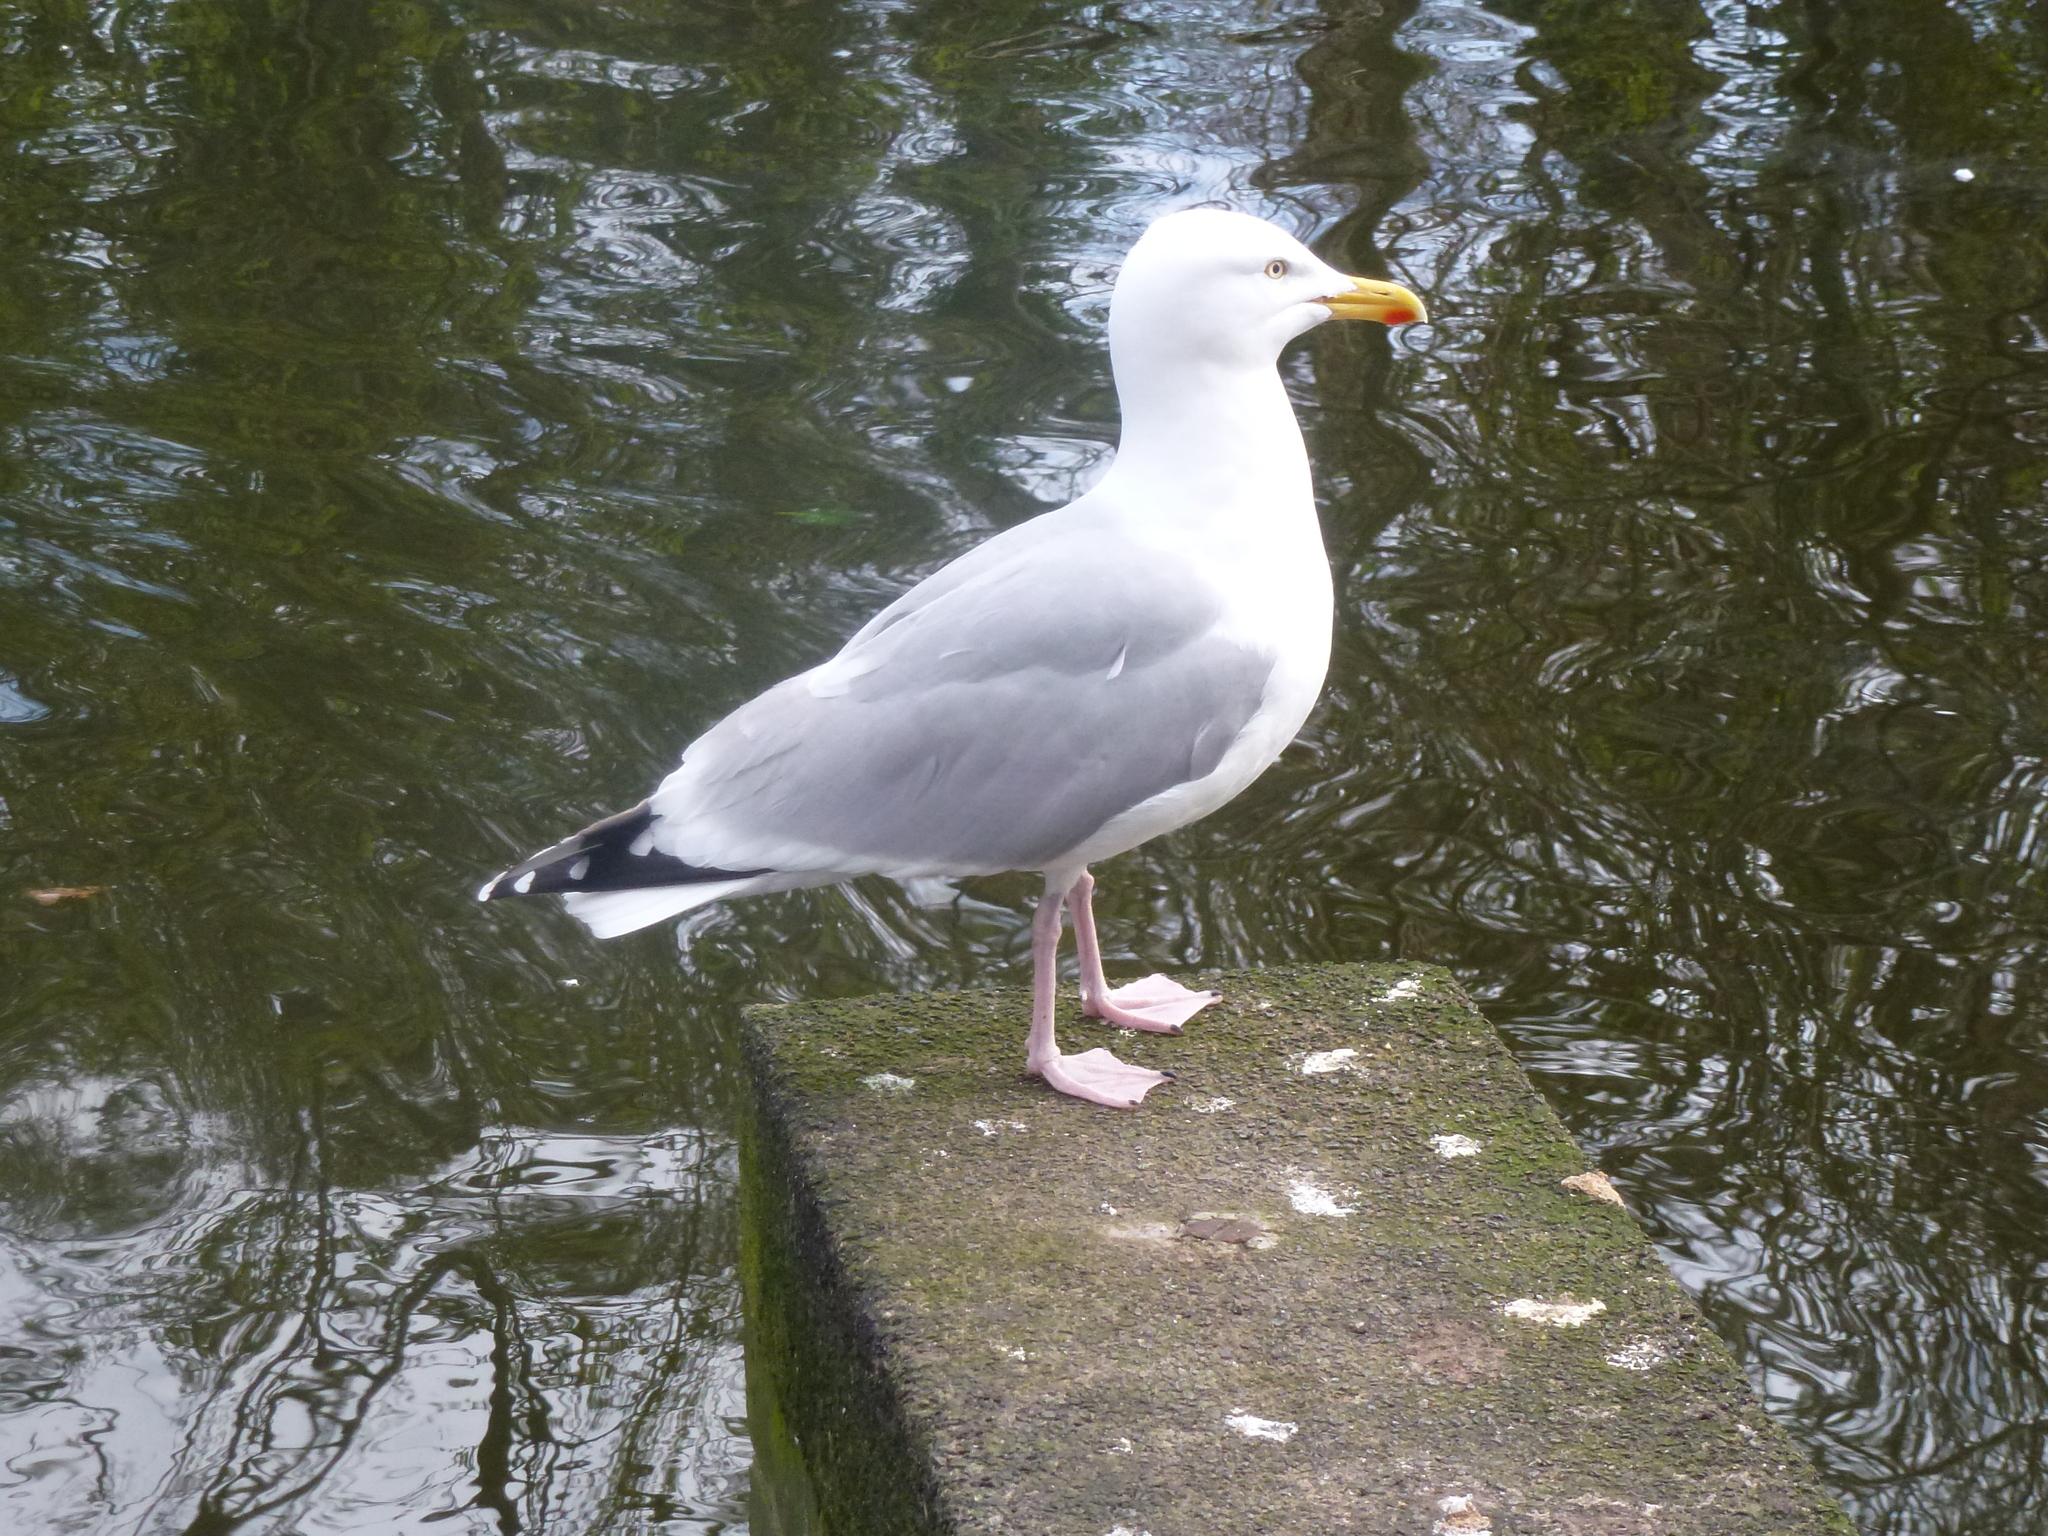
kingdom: Animalia
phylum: Chordata
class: Aves
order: Charadriiformes
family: Laridae
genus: Larus
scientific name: Larus argentatus
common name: Herring gull
